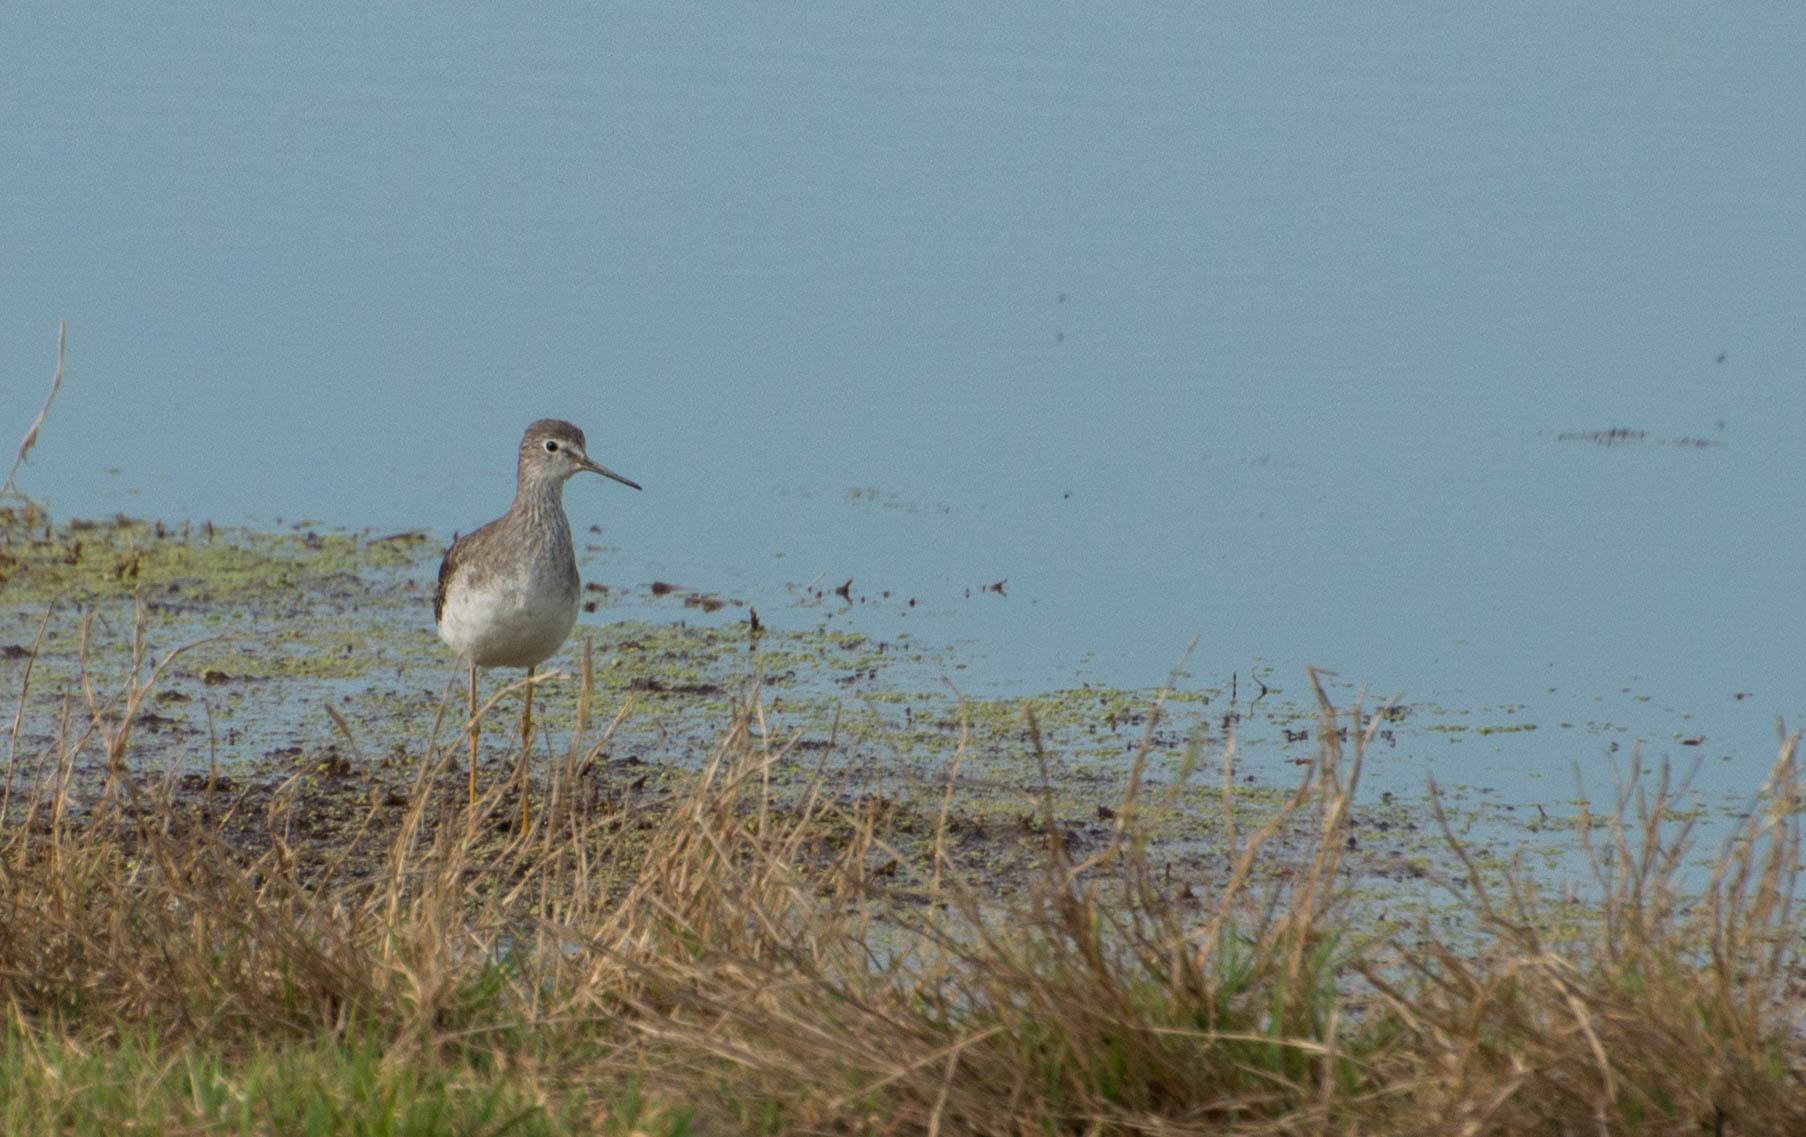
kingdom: Animalia
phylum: Chordata
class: Aves
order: Charadriiformes
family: Scolopacidae
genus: Tringa
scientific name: Tringa flavipes
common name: Lesser yellowlegs
